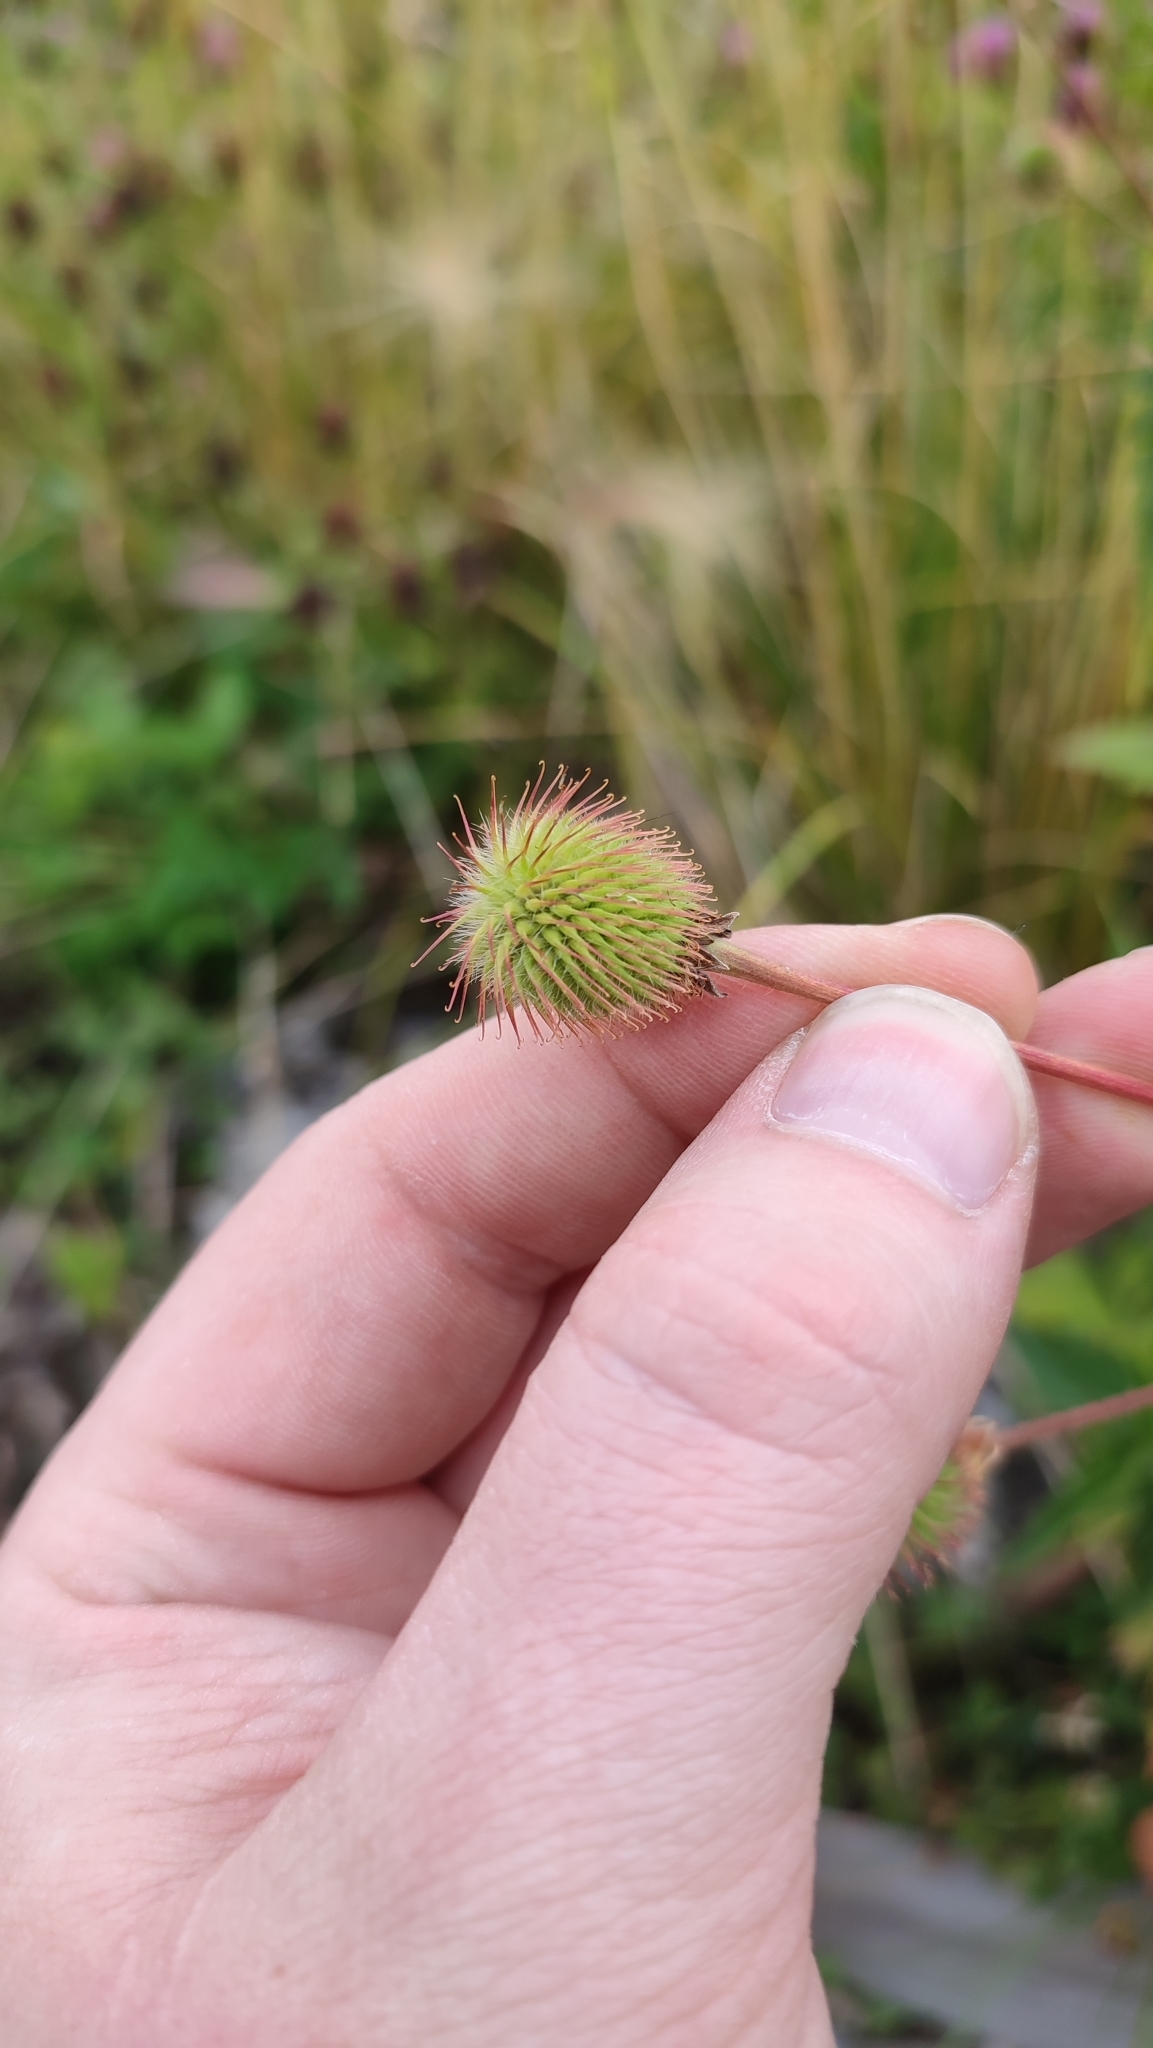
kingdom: Plantae
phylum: Tracheophyta
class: Magnoliopsida
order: Rosales
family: Rosaceae
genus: Geum
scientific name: Geum aleppicum
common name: Yellow avens
